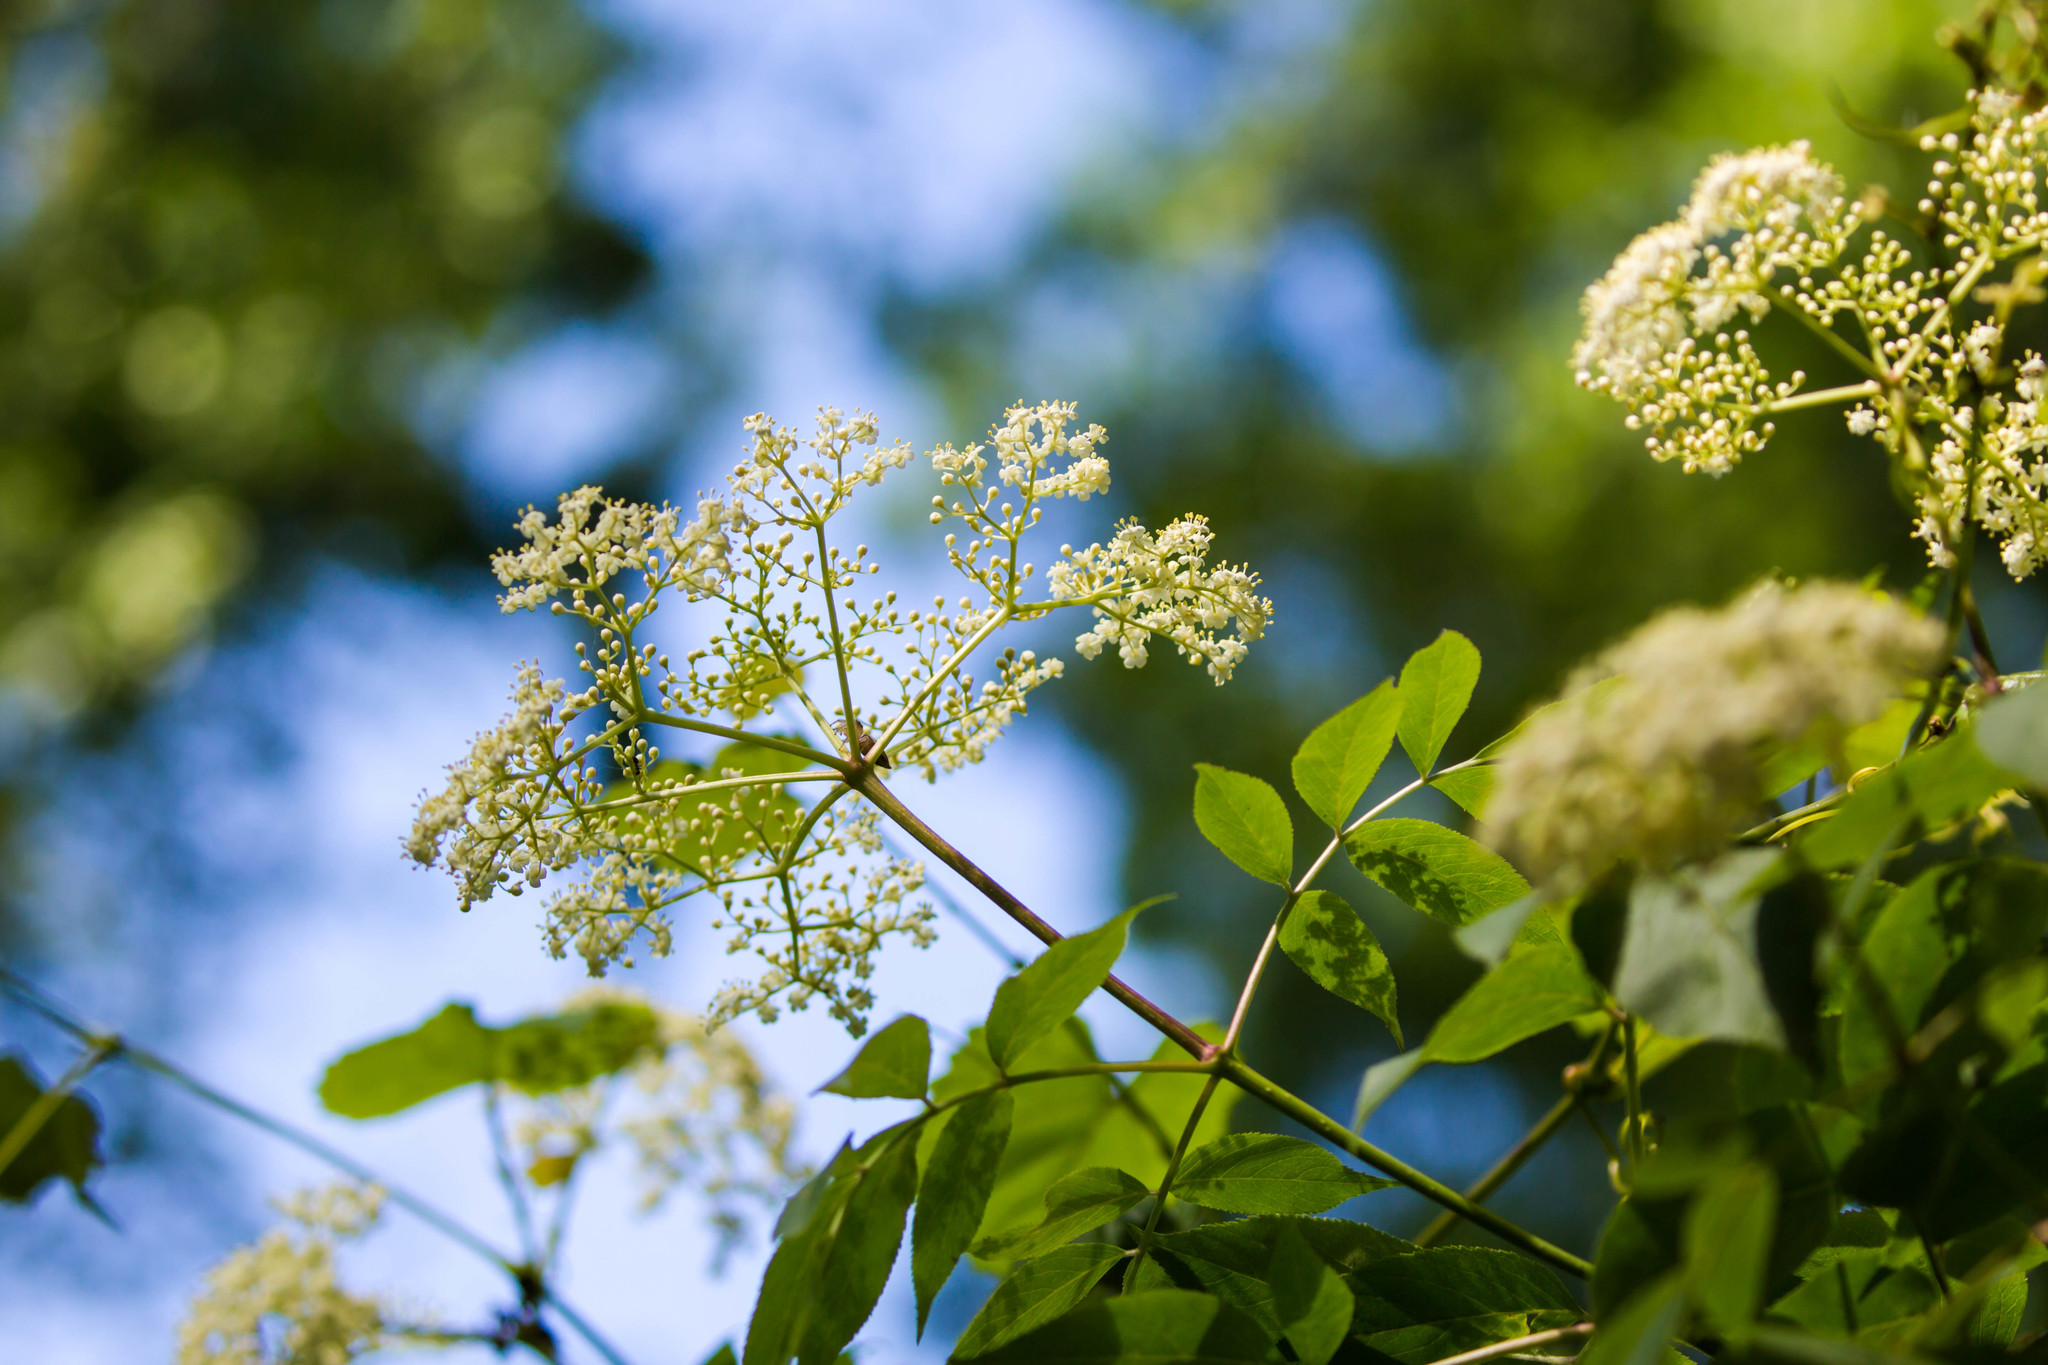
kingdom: Plantae
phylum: Tracheophyta
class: Magnoliopsida
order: Dipsacales
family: Viburnaceae
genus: Sambucus
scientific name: Sambucus canadensis
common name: American elder
